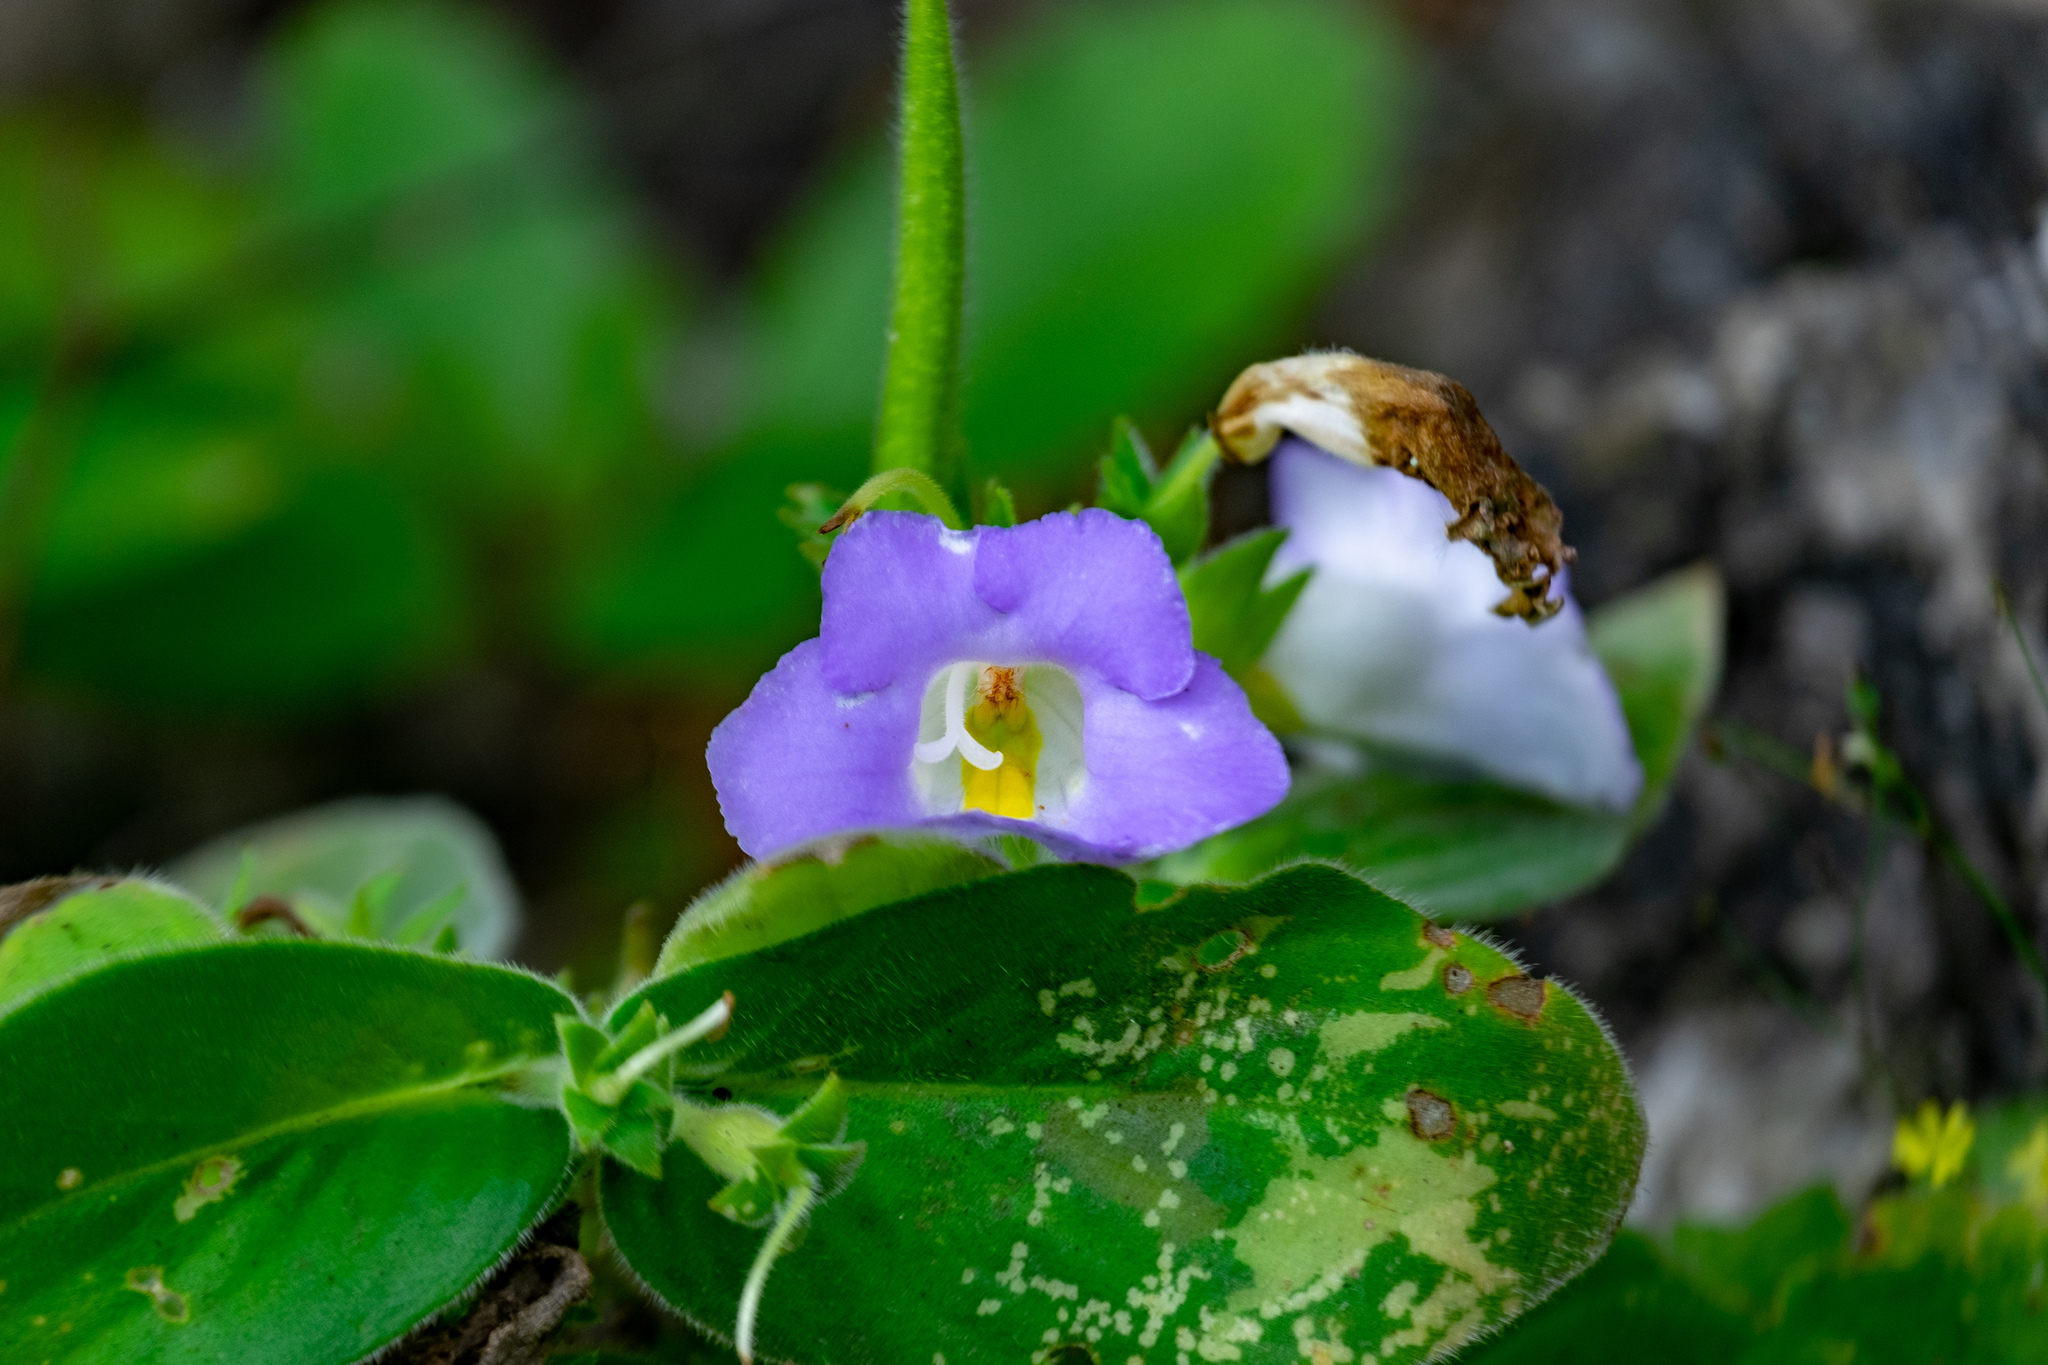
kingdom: Plantae
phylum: Tracheophyta
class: Magnoliopsida
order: Lamiales
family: Gesneriaceae
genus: Microchirita
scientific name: Microchirita lavandulacea
